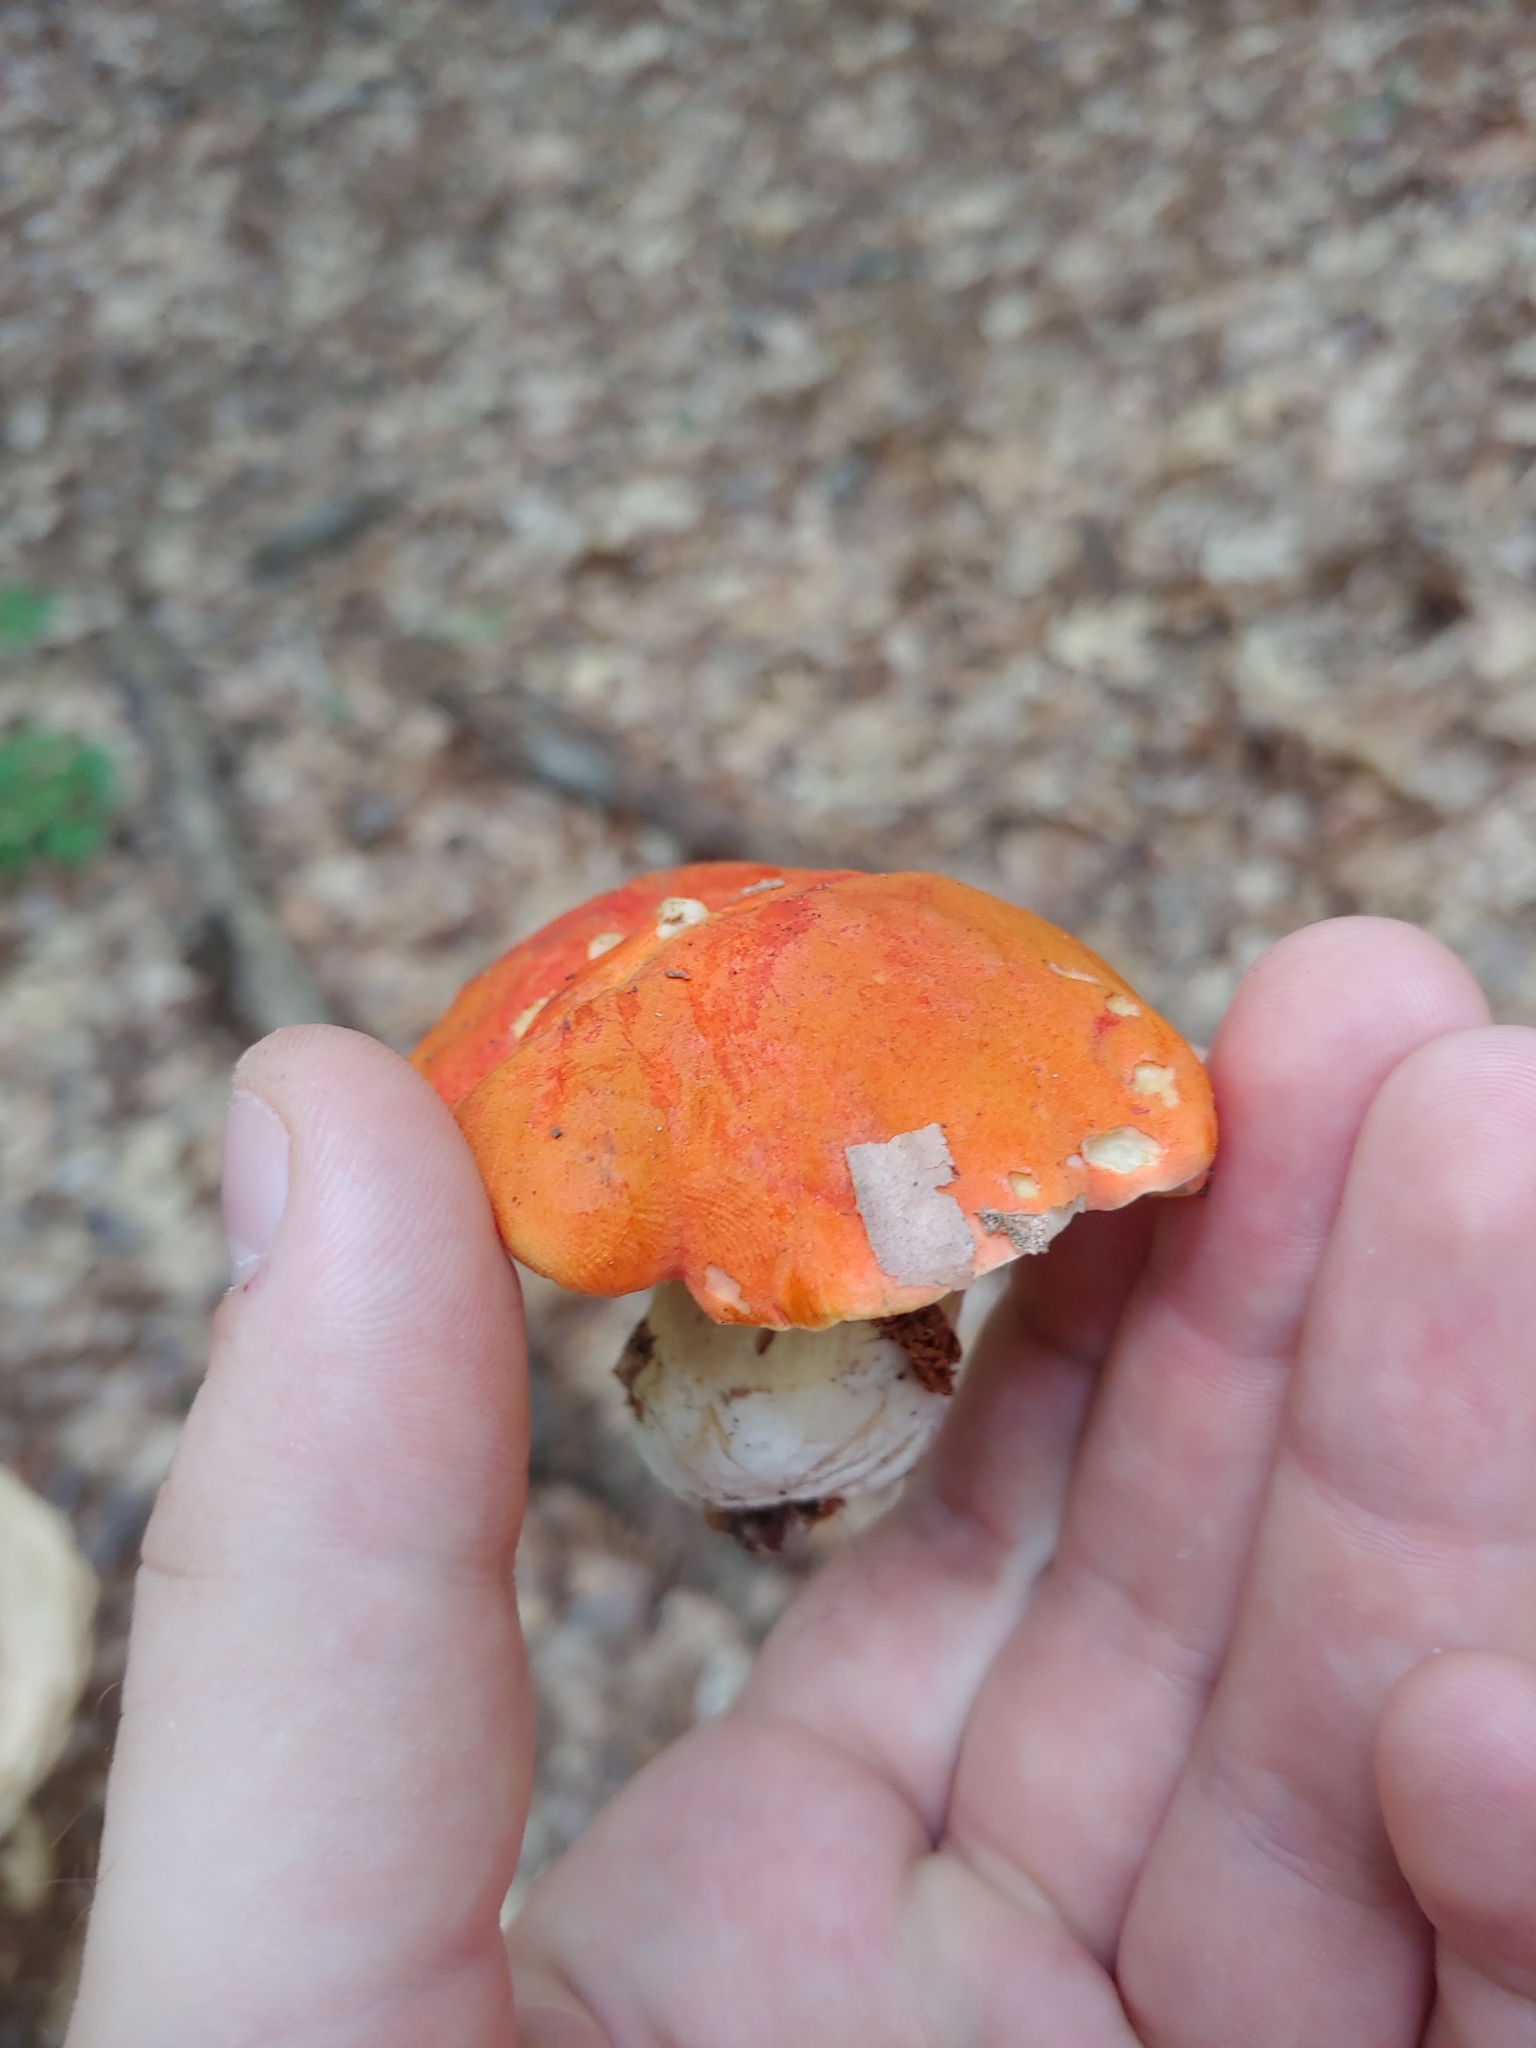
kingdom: Fungi
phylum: Basidiomycota
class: Agaricomycetes
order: Boletales
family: Boletaceae
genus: Tylopilus
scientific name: Tylopilus balloui
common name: Burnt-orange bolete
